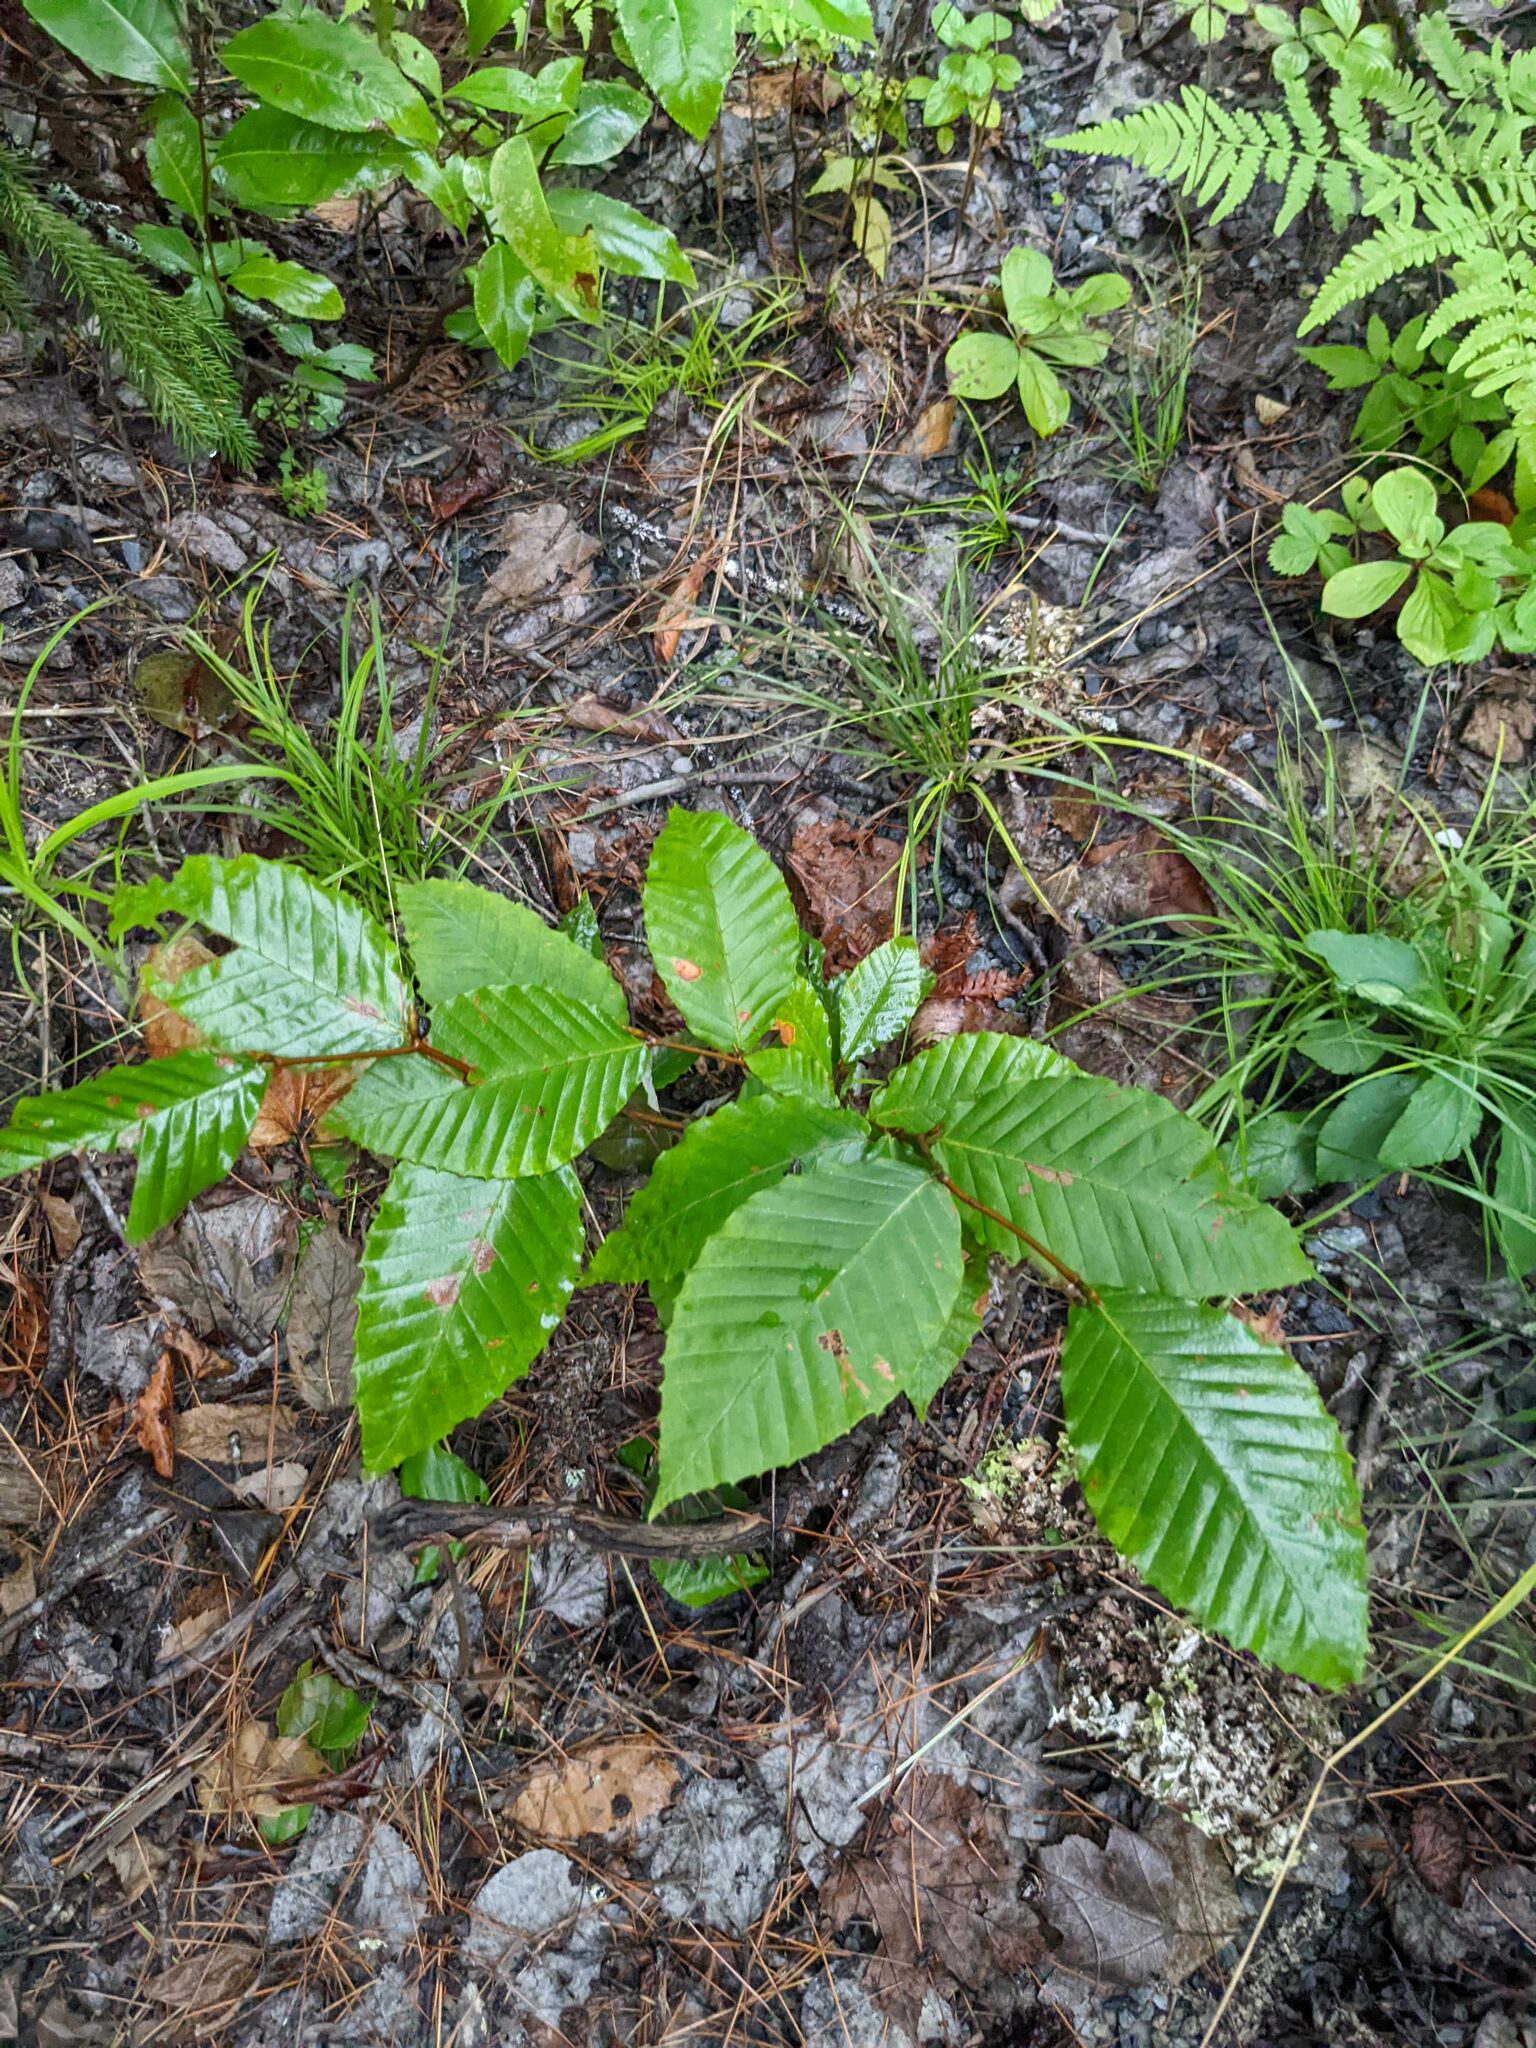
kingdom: Plantae
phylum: Tracheophyta
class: Magnoliopsida
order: Fagales
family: Fagaceae
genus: Fagus
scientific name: Fagus grandifolia
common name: American beech
